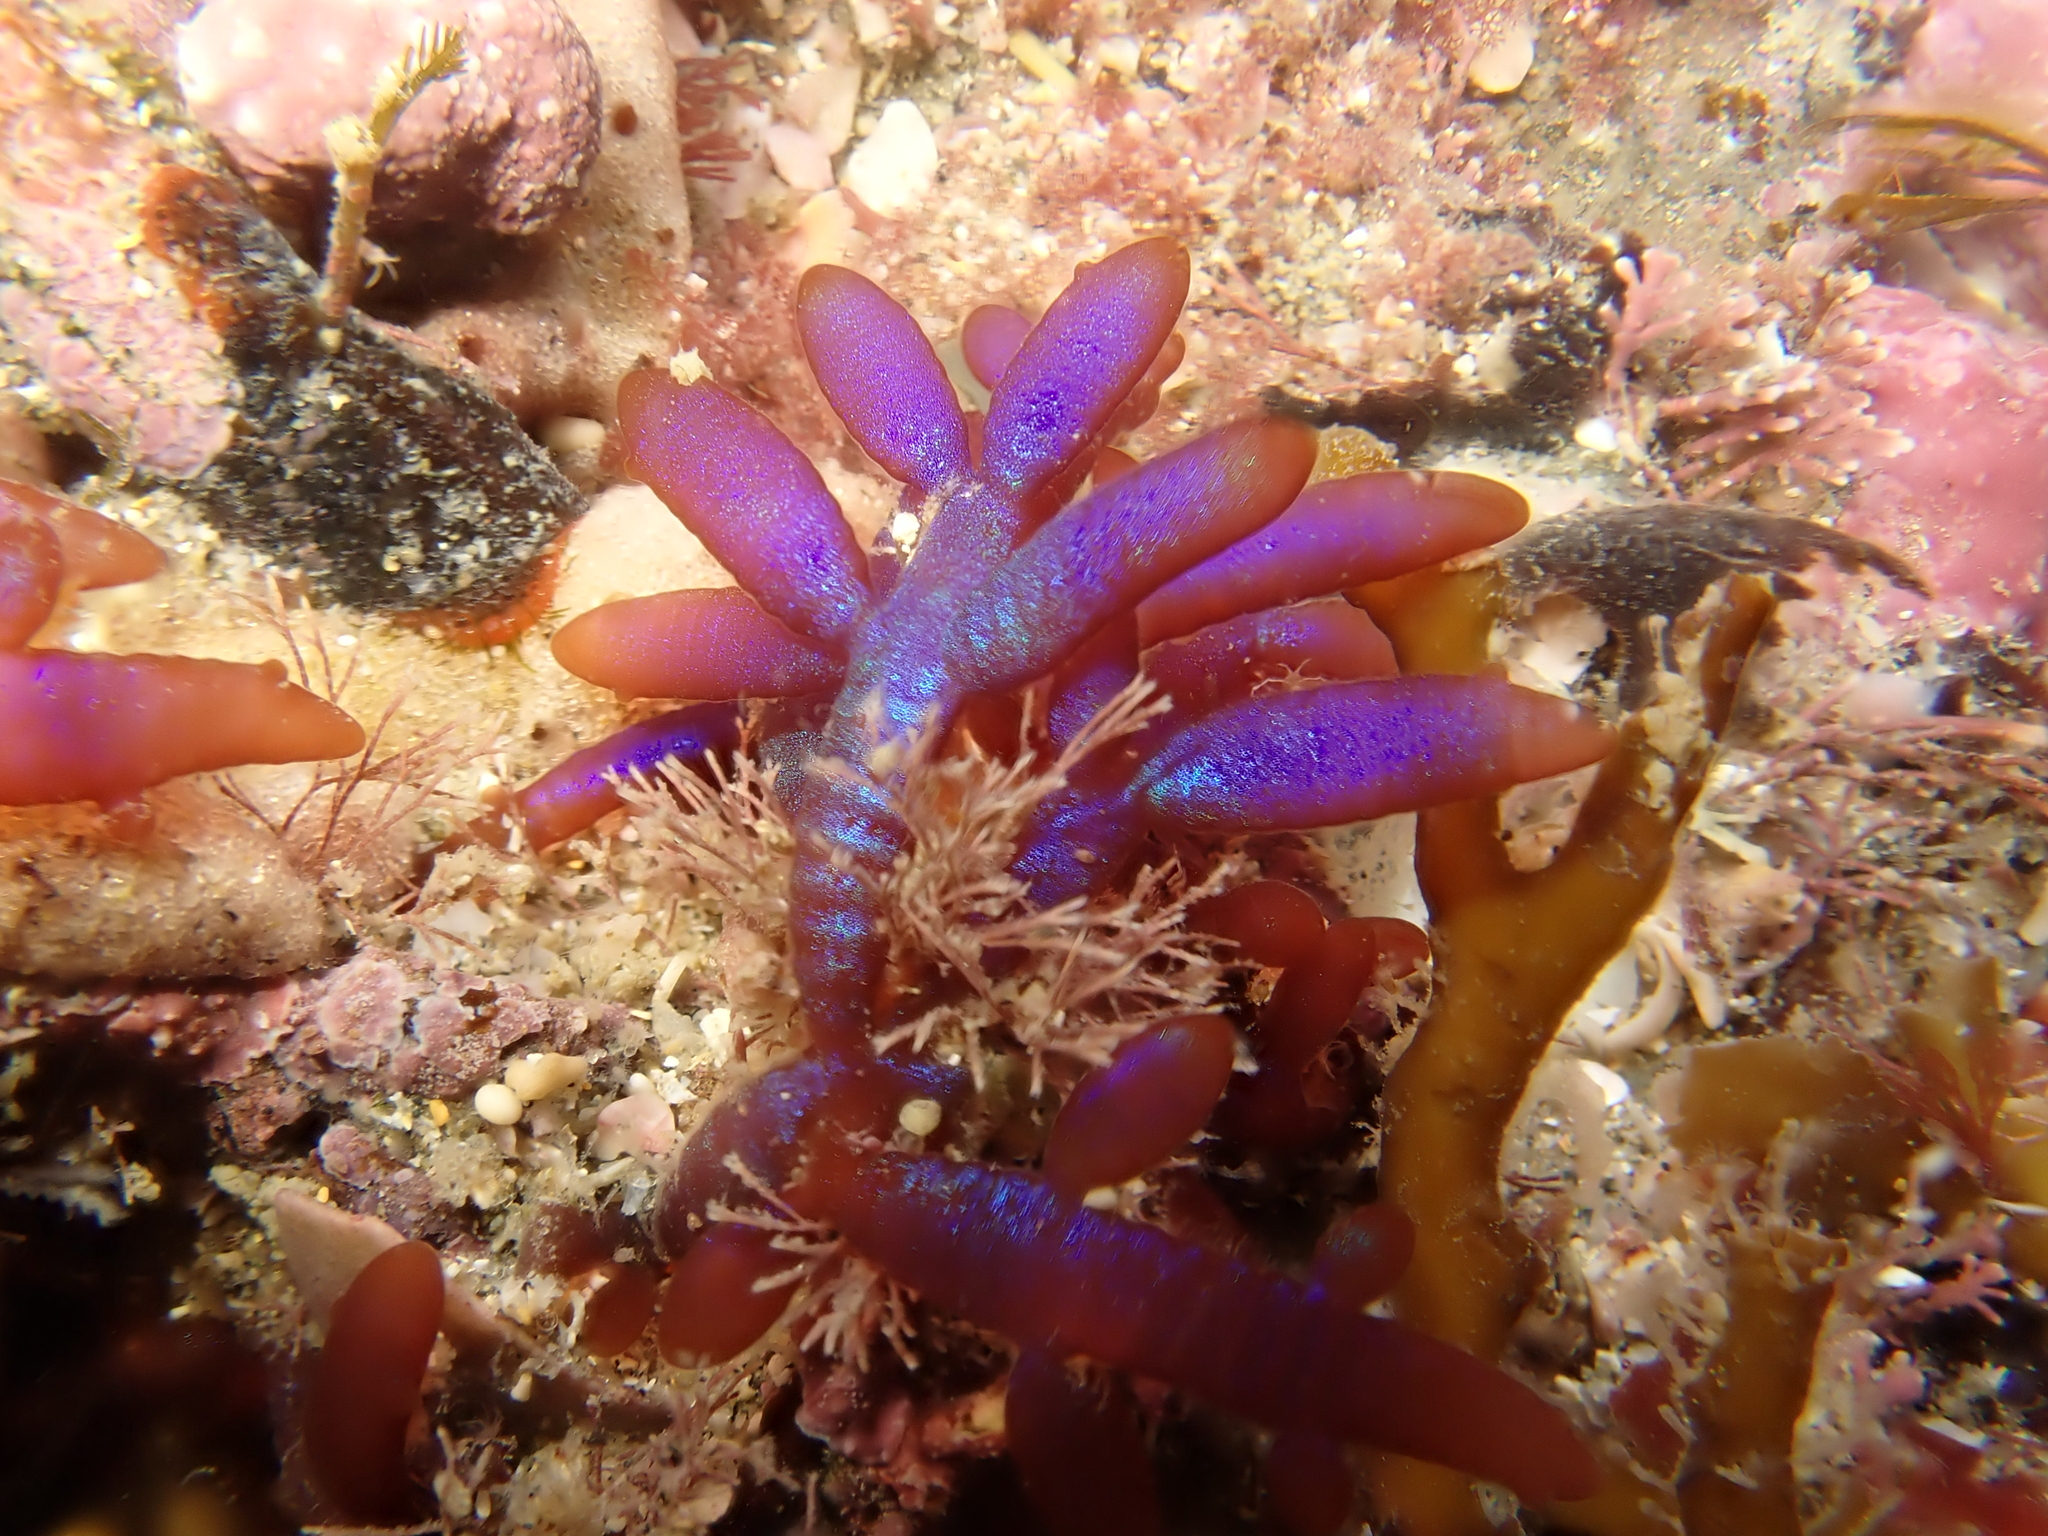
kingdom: Plantae
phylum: Rhodophyta
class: Florideophyceae
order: Rhodymeniales
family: Champiaceae
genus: Champia
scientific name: Champia laingii
